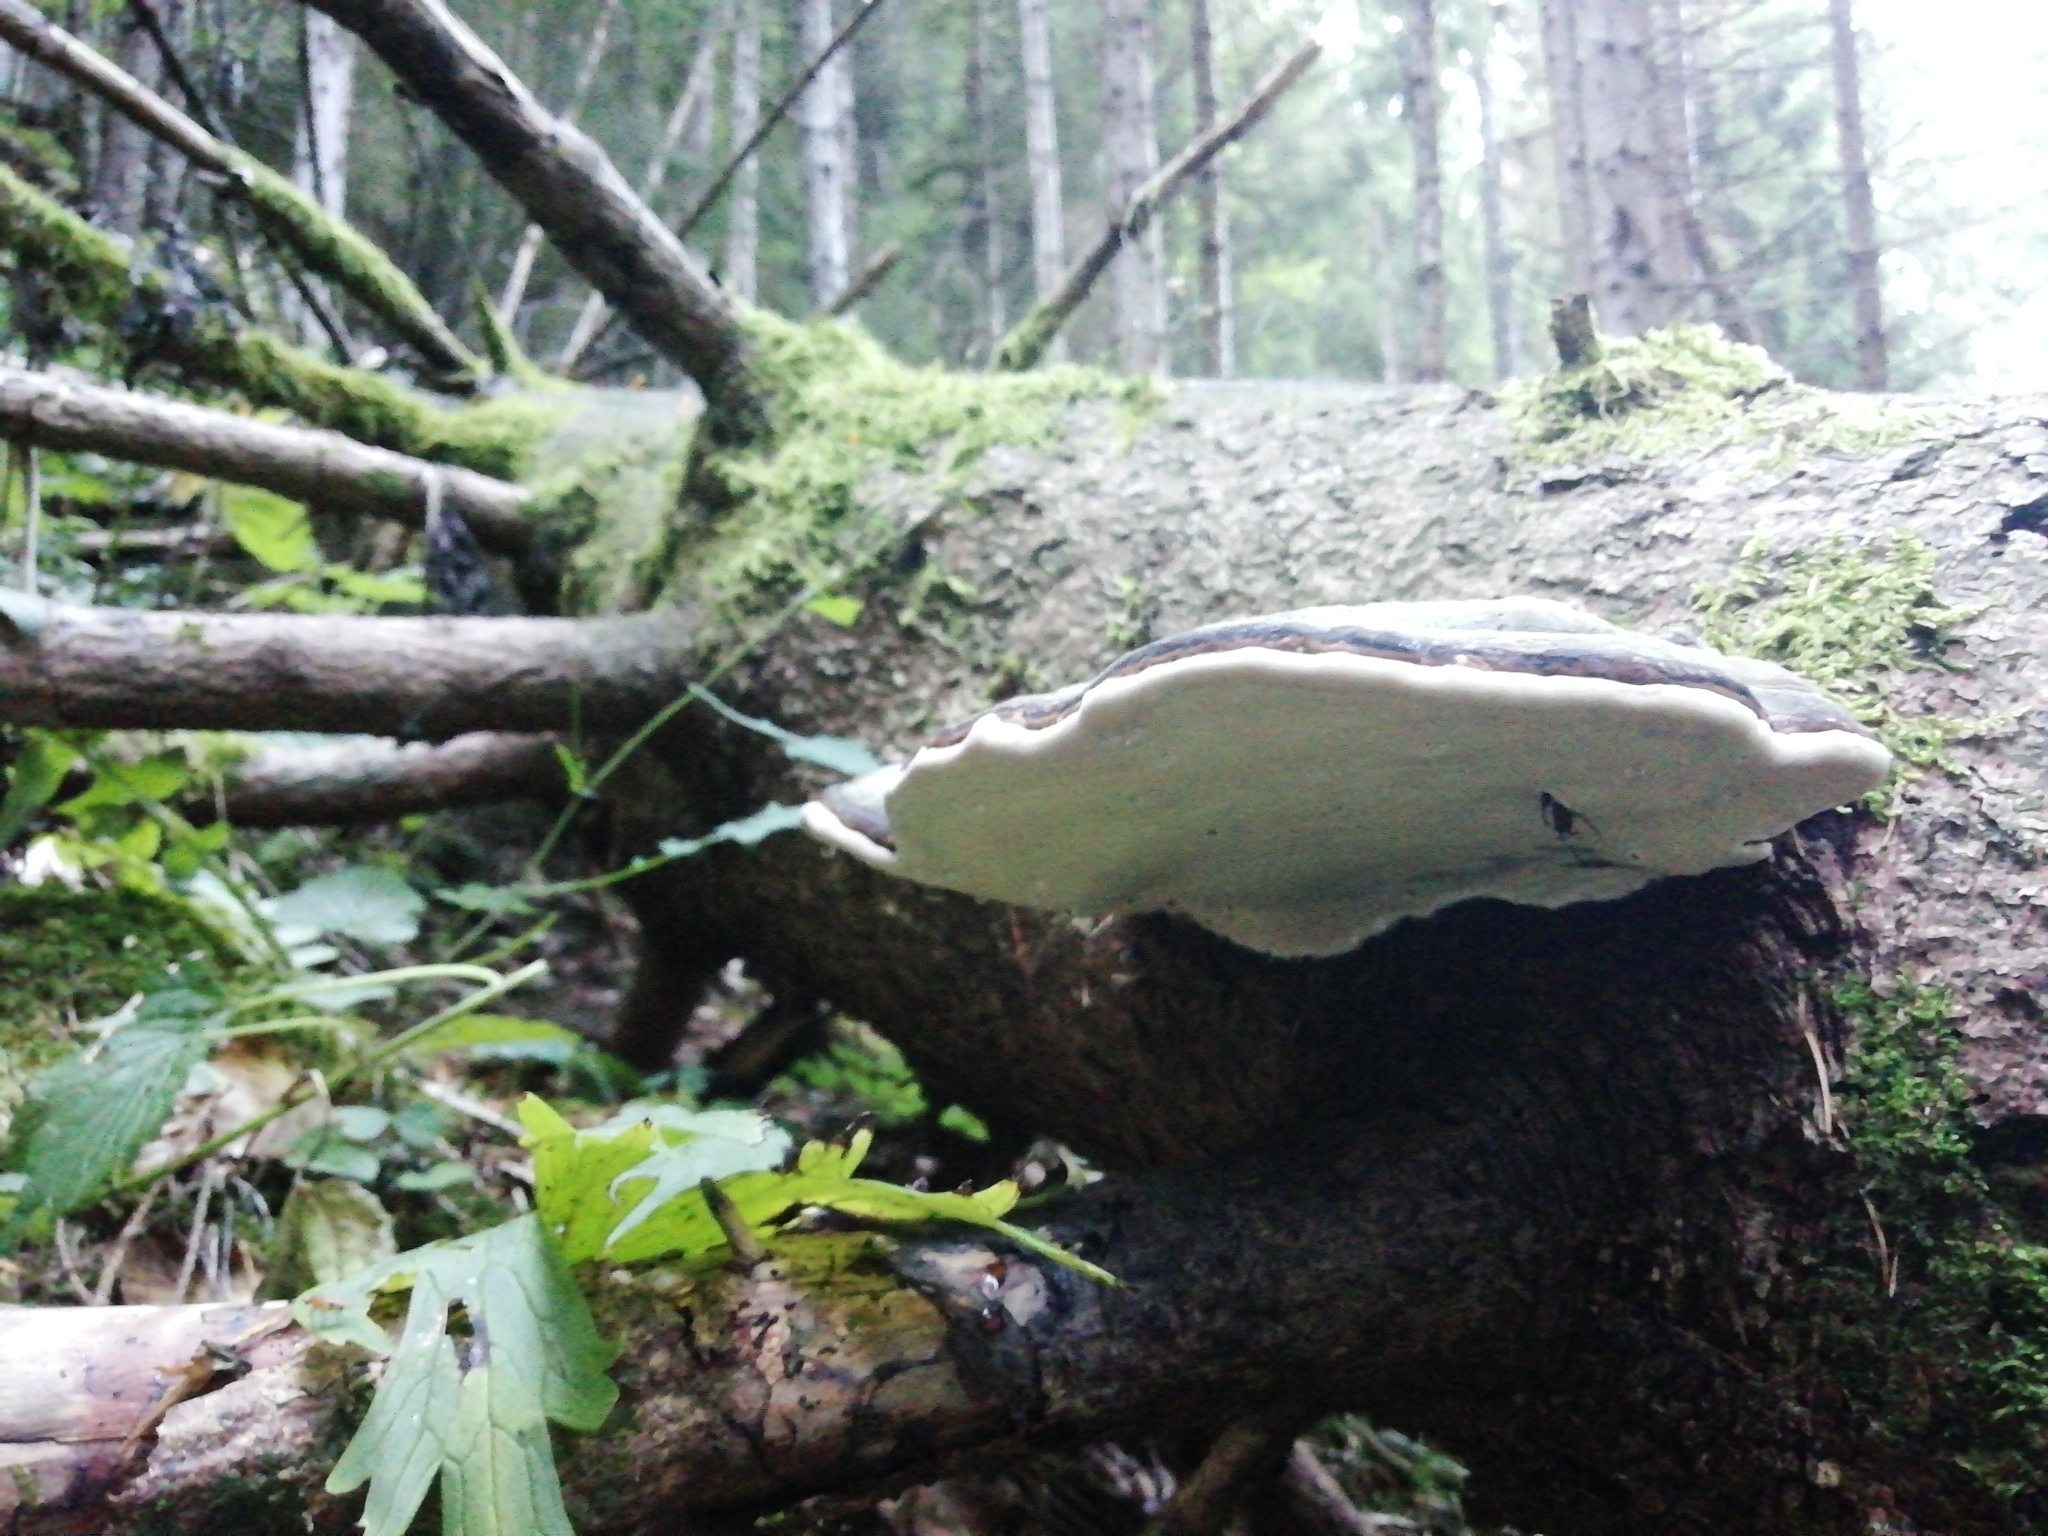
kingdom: Fungi
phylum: Basidiomycota
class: Agaricomycetes
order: Polyporales
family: Fomitopsidaceae
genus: Fomitopsis
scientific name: Fomitopsis pinicola
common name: Red-belted bracket
